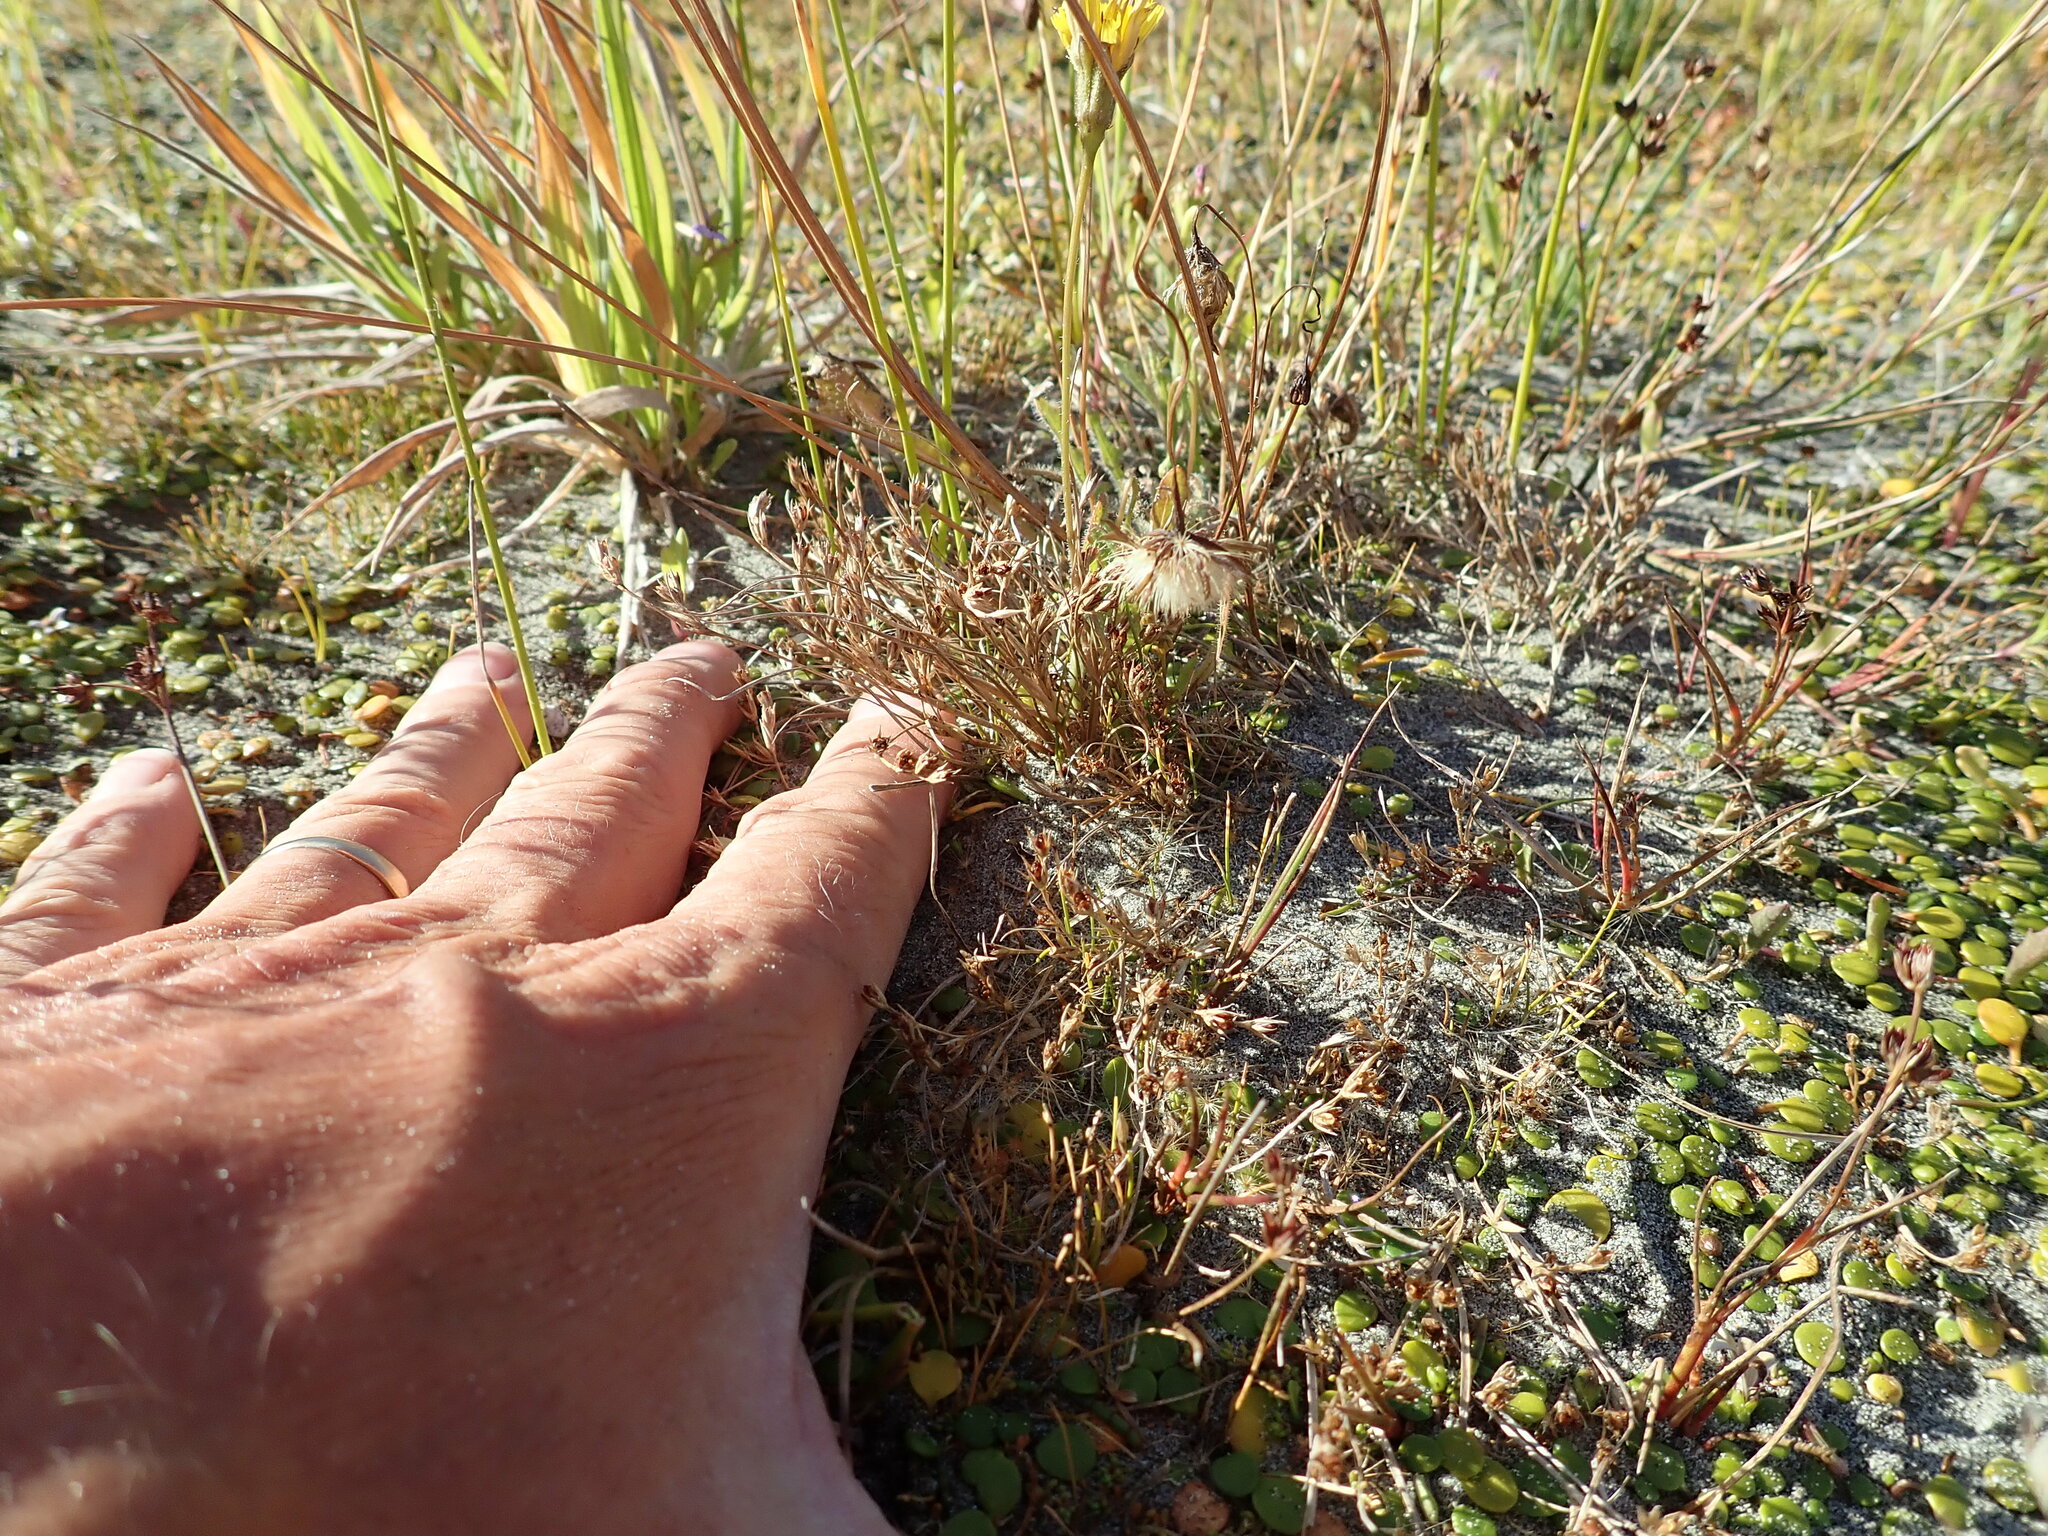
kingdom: Plantae
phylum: Tracheophyta
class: Liliopsida
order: Poales
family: Juncaceae
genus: Juncus
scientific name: Juncus bufonius
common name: Toad rush
